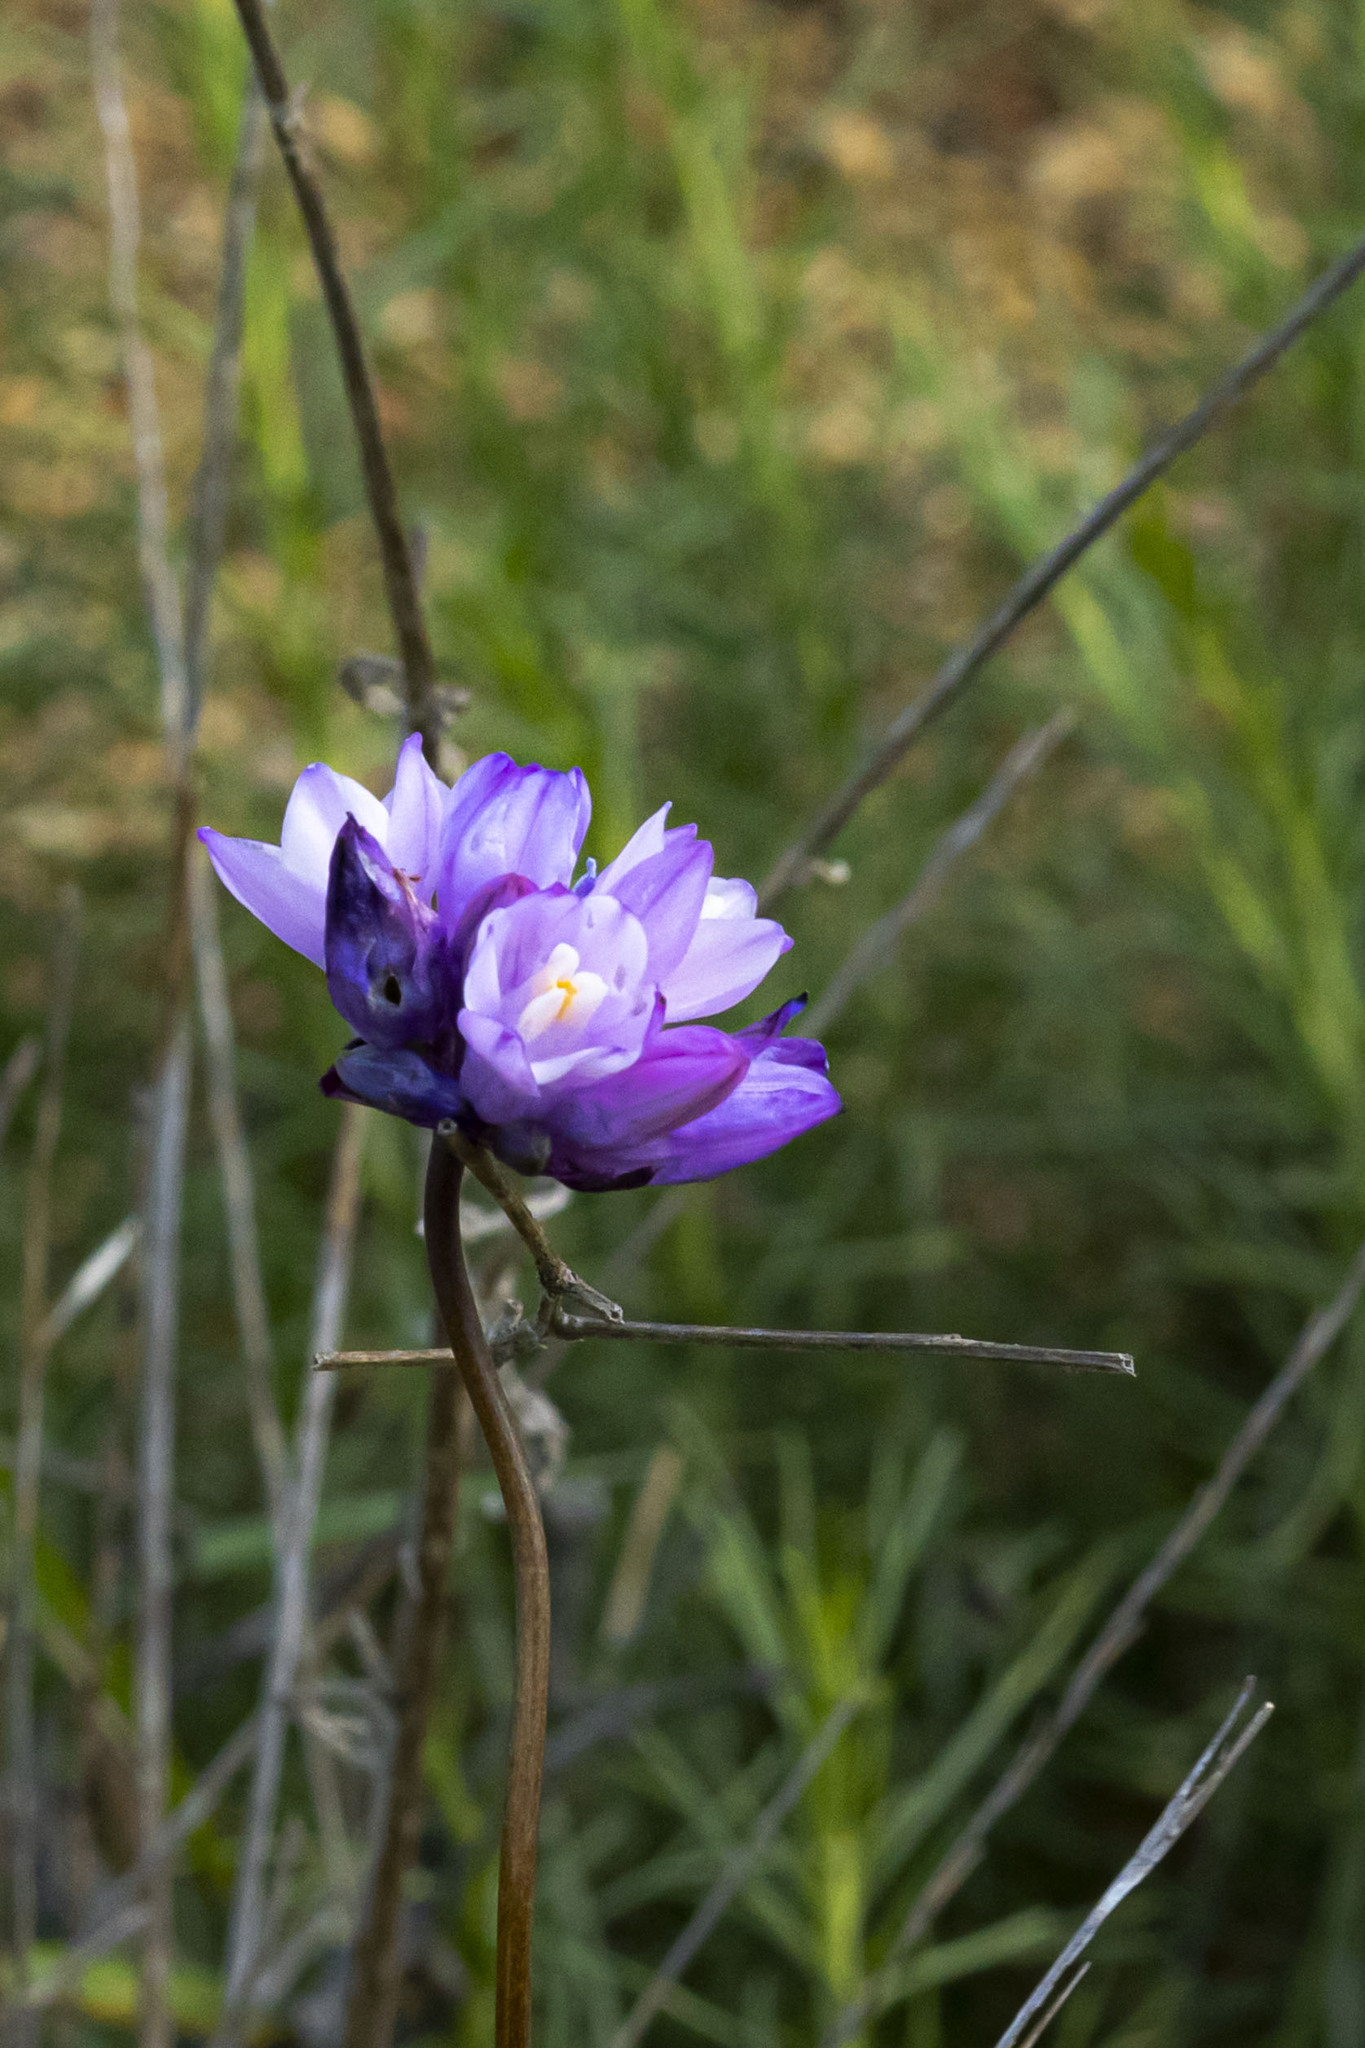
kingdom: Plantae
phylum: Tracheophyta
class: Liliopsida
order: Asparagales
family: Asparagaceae
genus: Dipterostemon
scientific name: Dipterostemon capitatus
